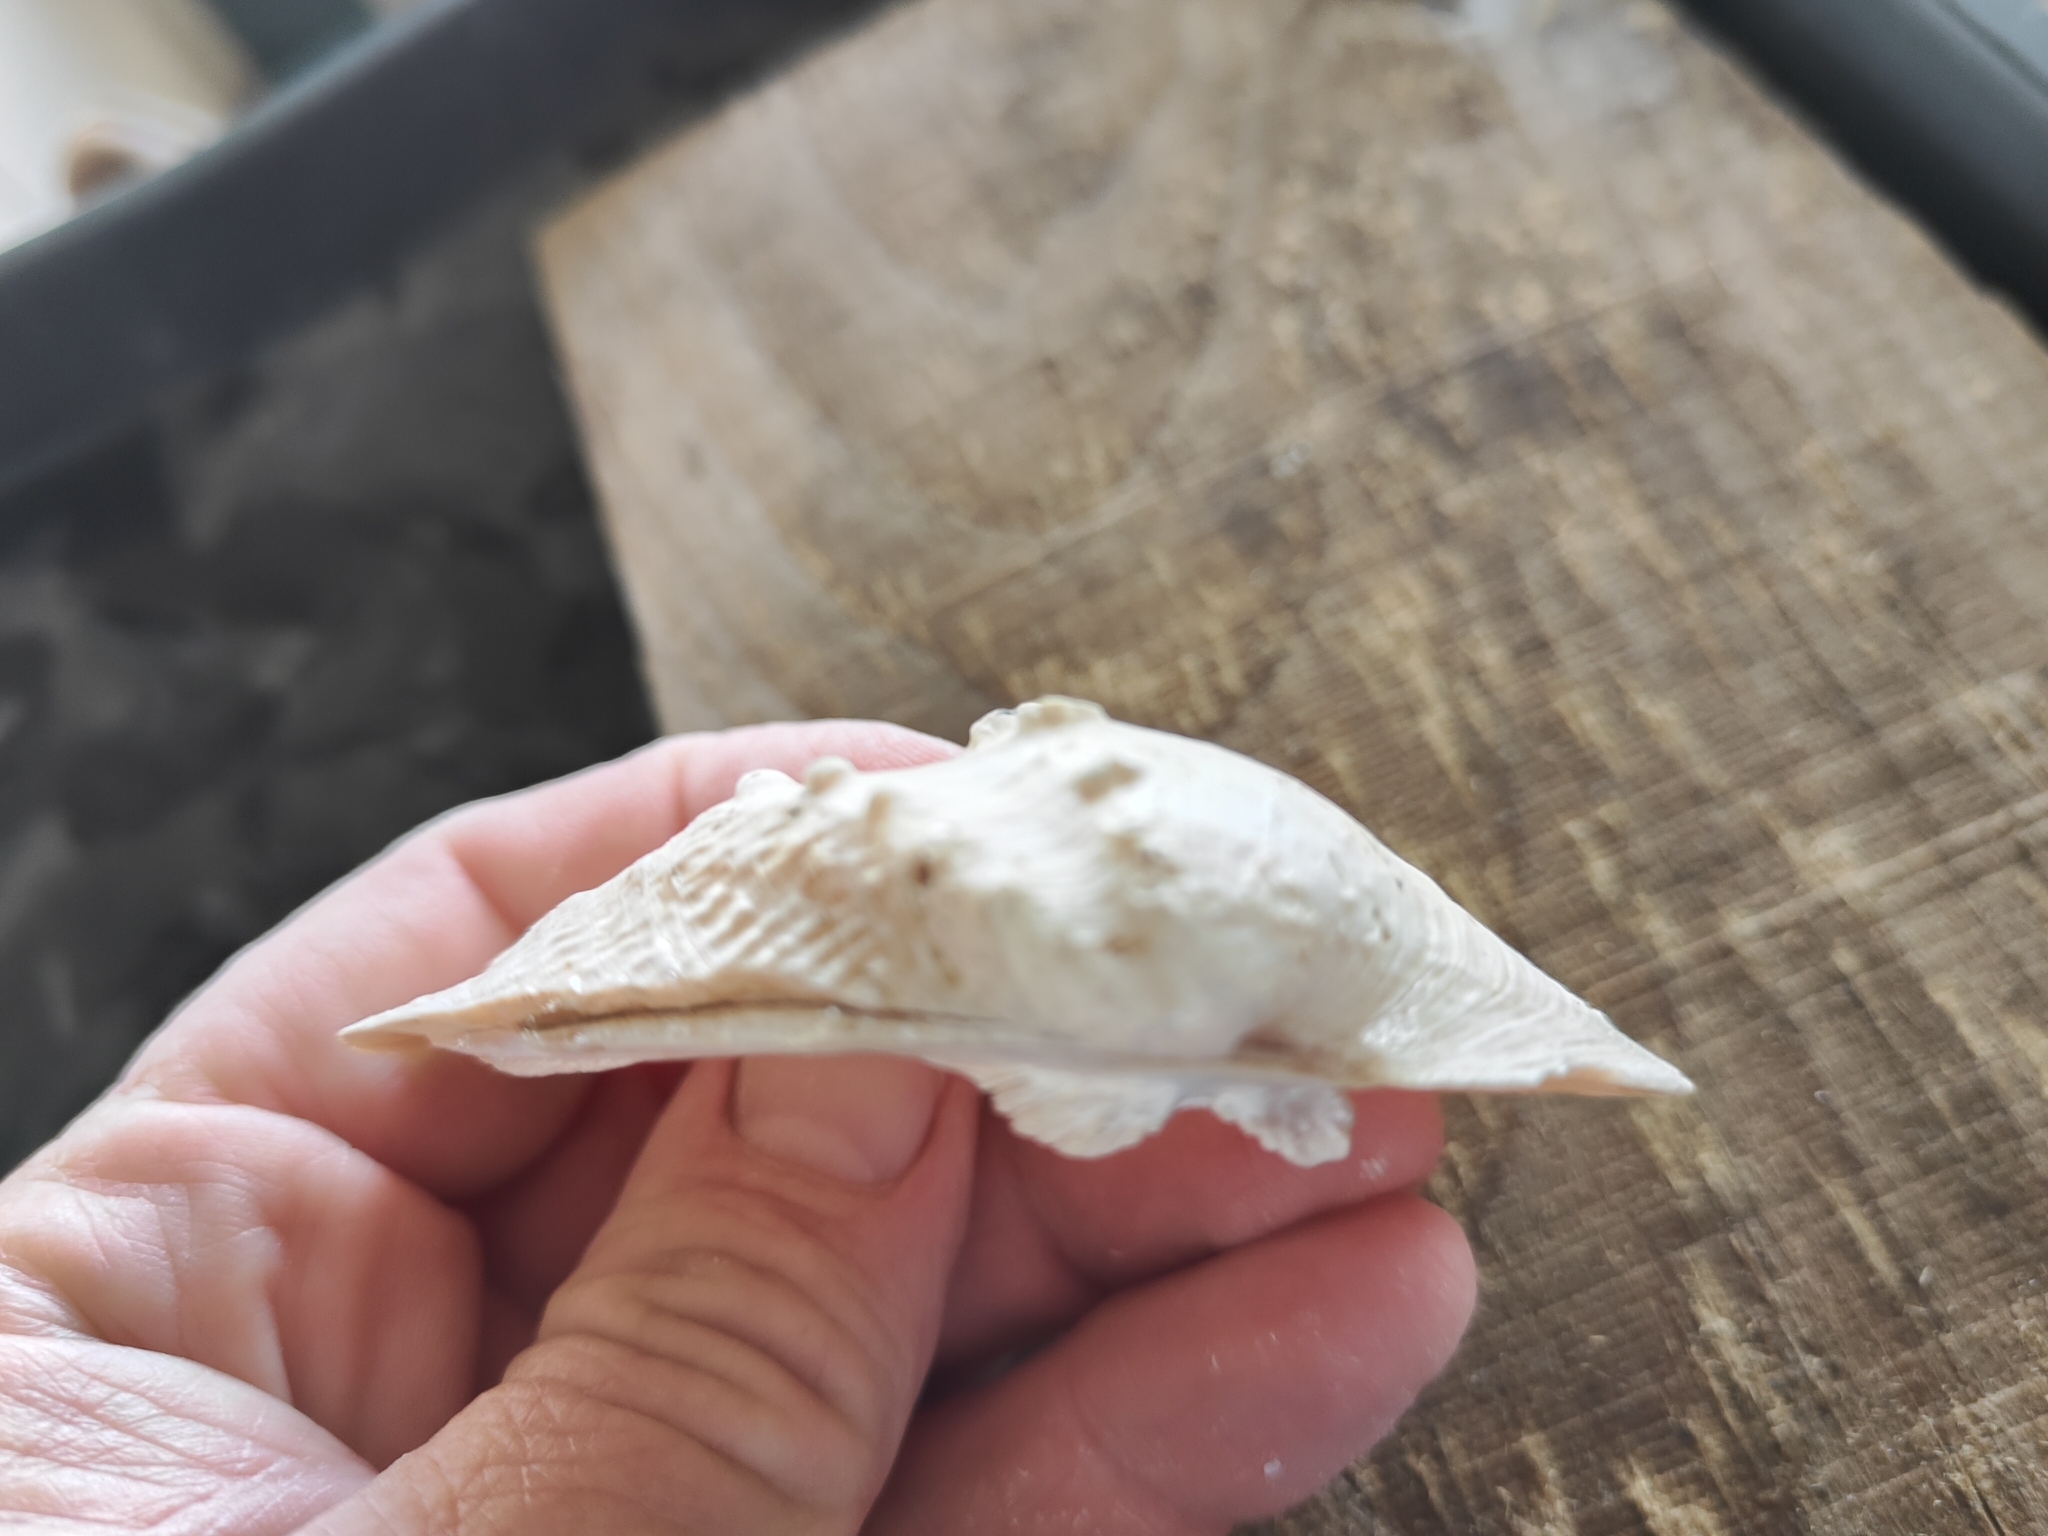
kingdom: Animalia
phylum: Mollusca
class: Bivalvia
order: Unionida
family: Unionidae
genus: Quadrula
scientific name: Quadrula quadrula
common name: Mapleleaf
